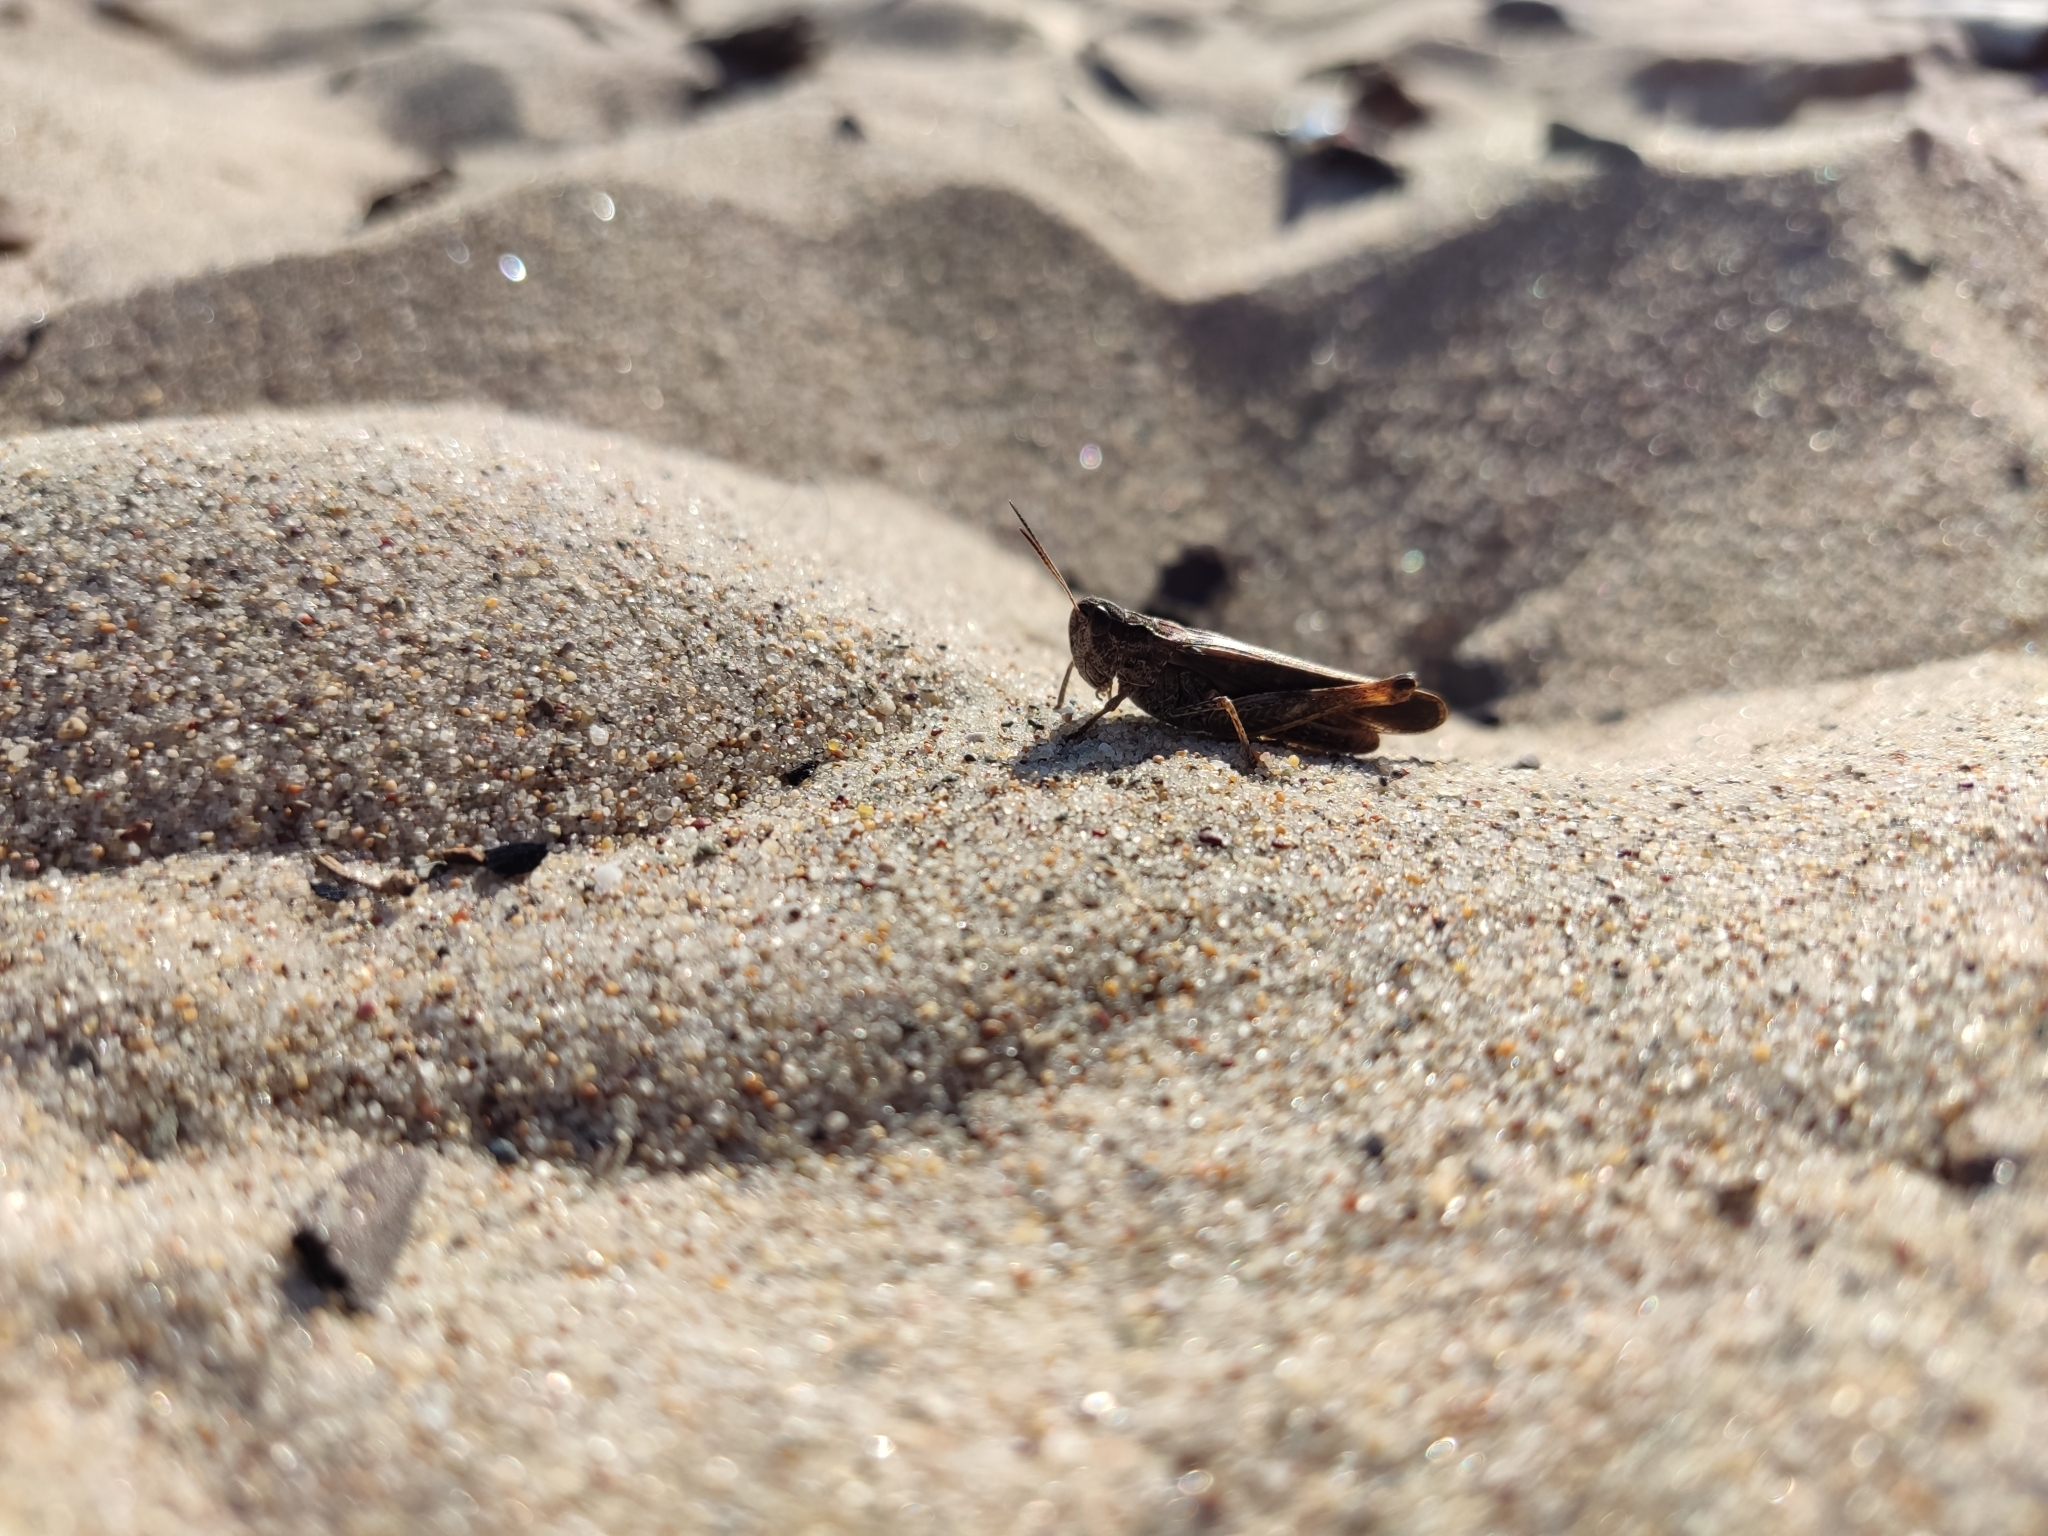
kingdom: Animalia
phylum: Arthropoda
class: Insecta
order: Orthoptera
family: Acrididae
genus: Stauroderus
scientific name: Stauroderus scalaris
